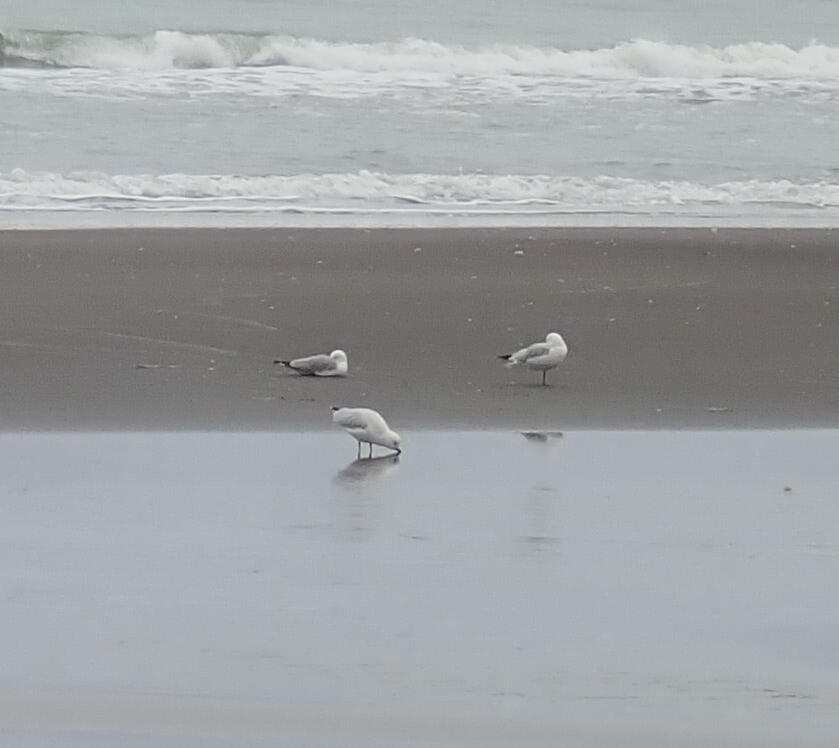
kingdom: Animalia
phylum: Chordata
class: Aves
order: Charadriiformes
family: Laridae
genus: Chroicocephalus
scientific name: Chroicocephalus bulleri
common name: Black-billed gull
